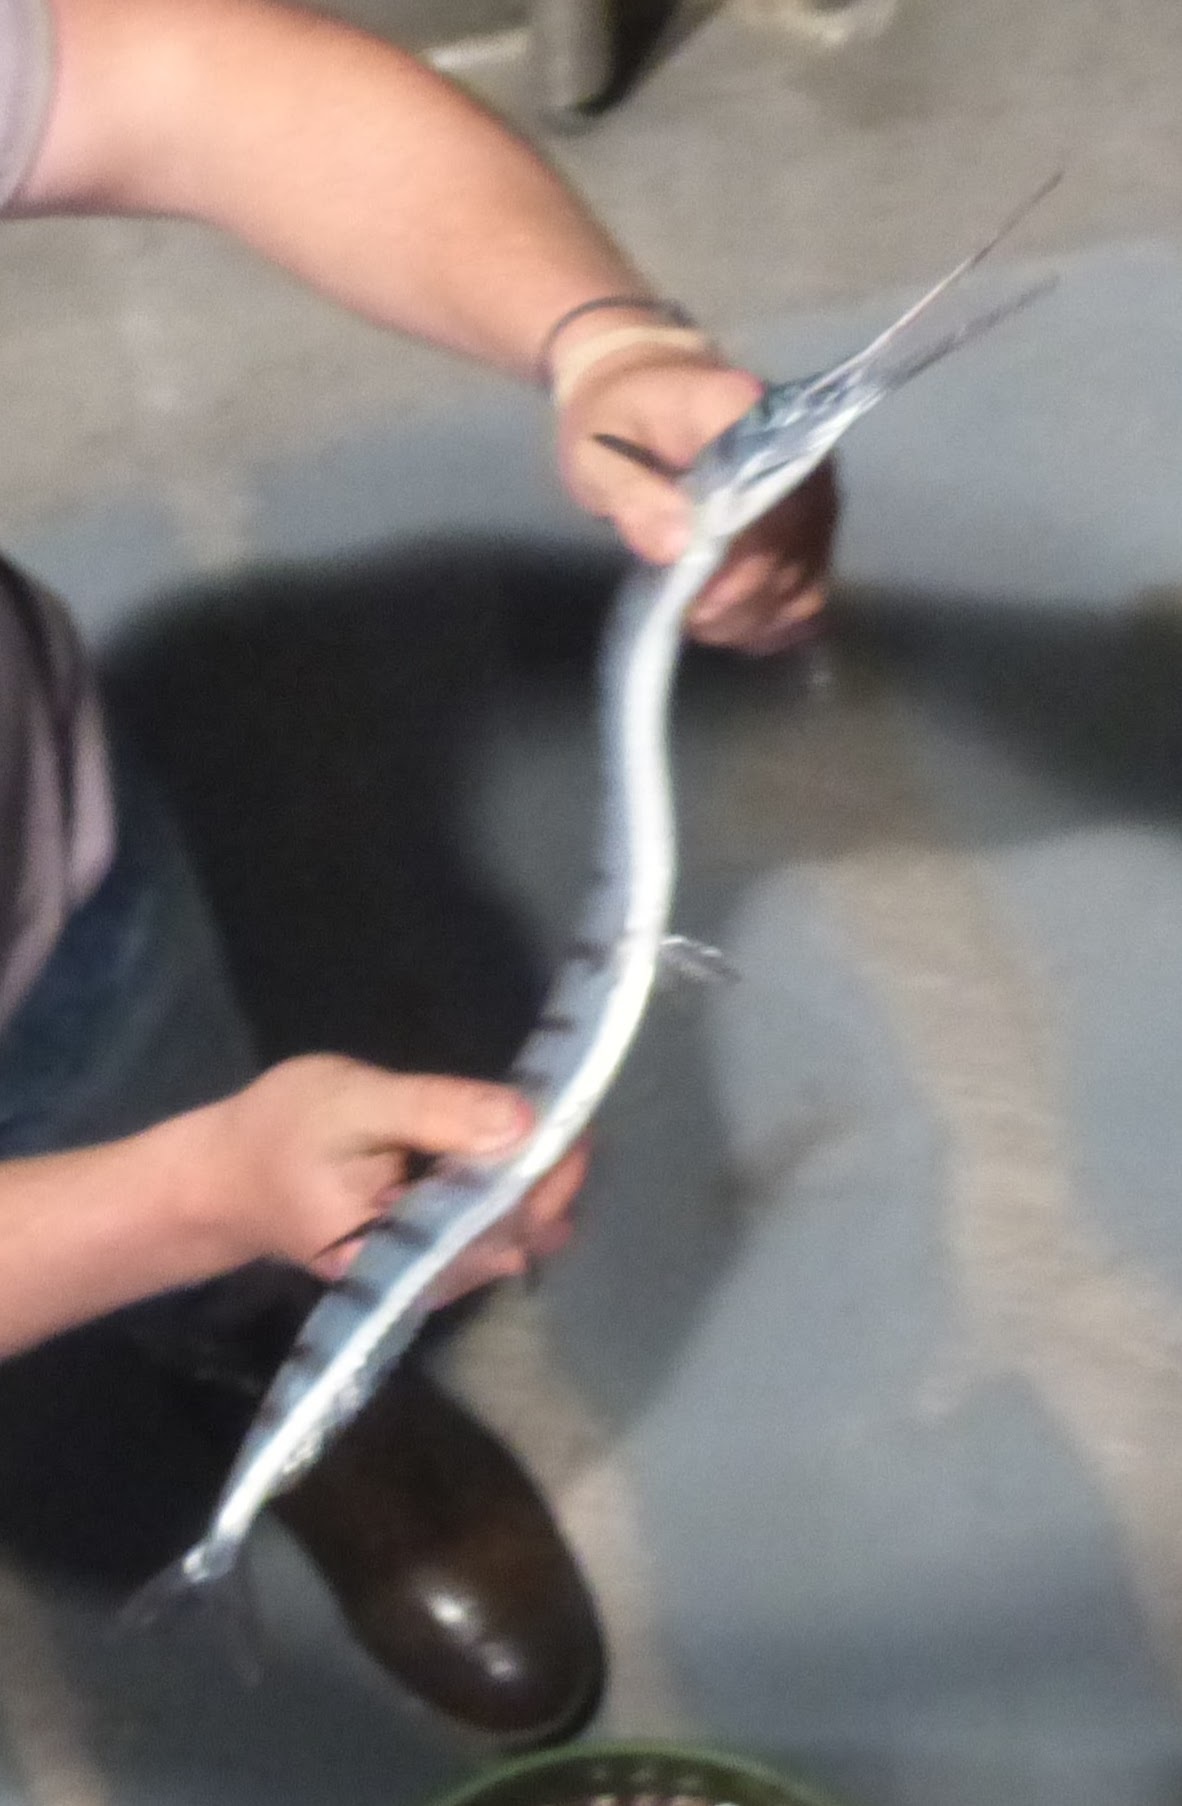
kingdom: Animalia
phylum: Chordata
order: Beloniformes
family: Belonidae
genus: Ablennes
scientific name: Ablennes hians
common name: Flat needlefish
